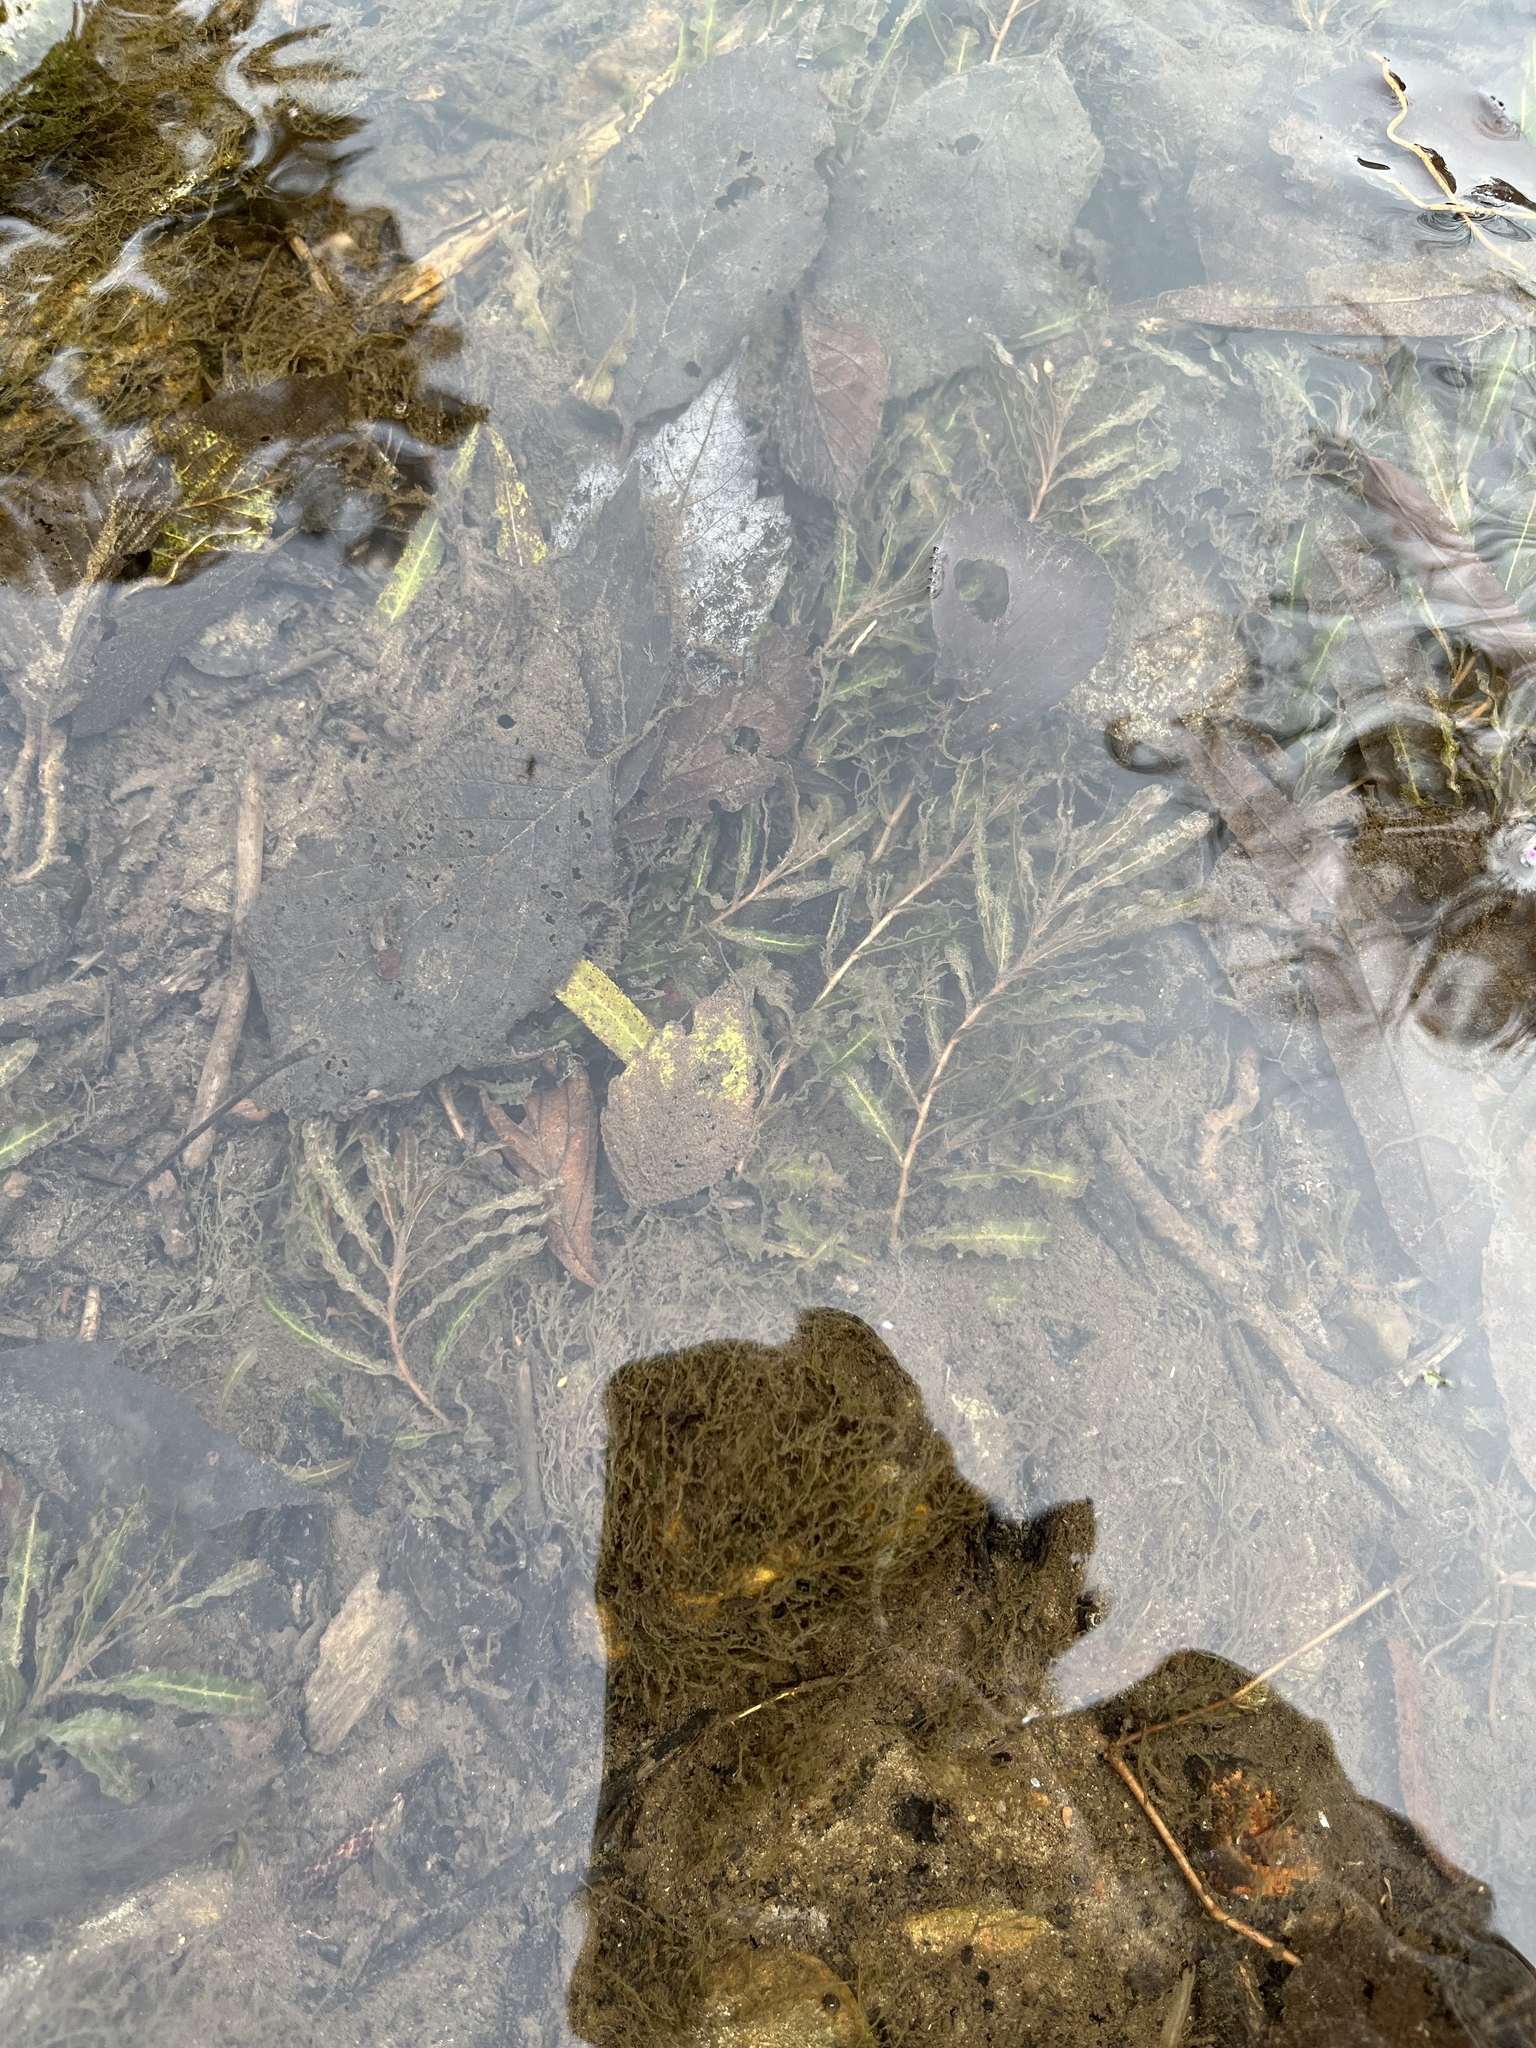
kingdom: Plantae
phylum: Tracheophyta
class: Liliopsida
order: Alismatales
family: Potamogetonaceae
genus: Potamogeton
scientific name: Potamogeton crispus
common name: Curled pondweed
